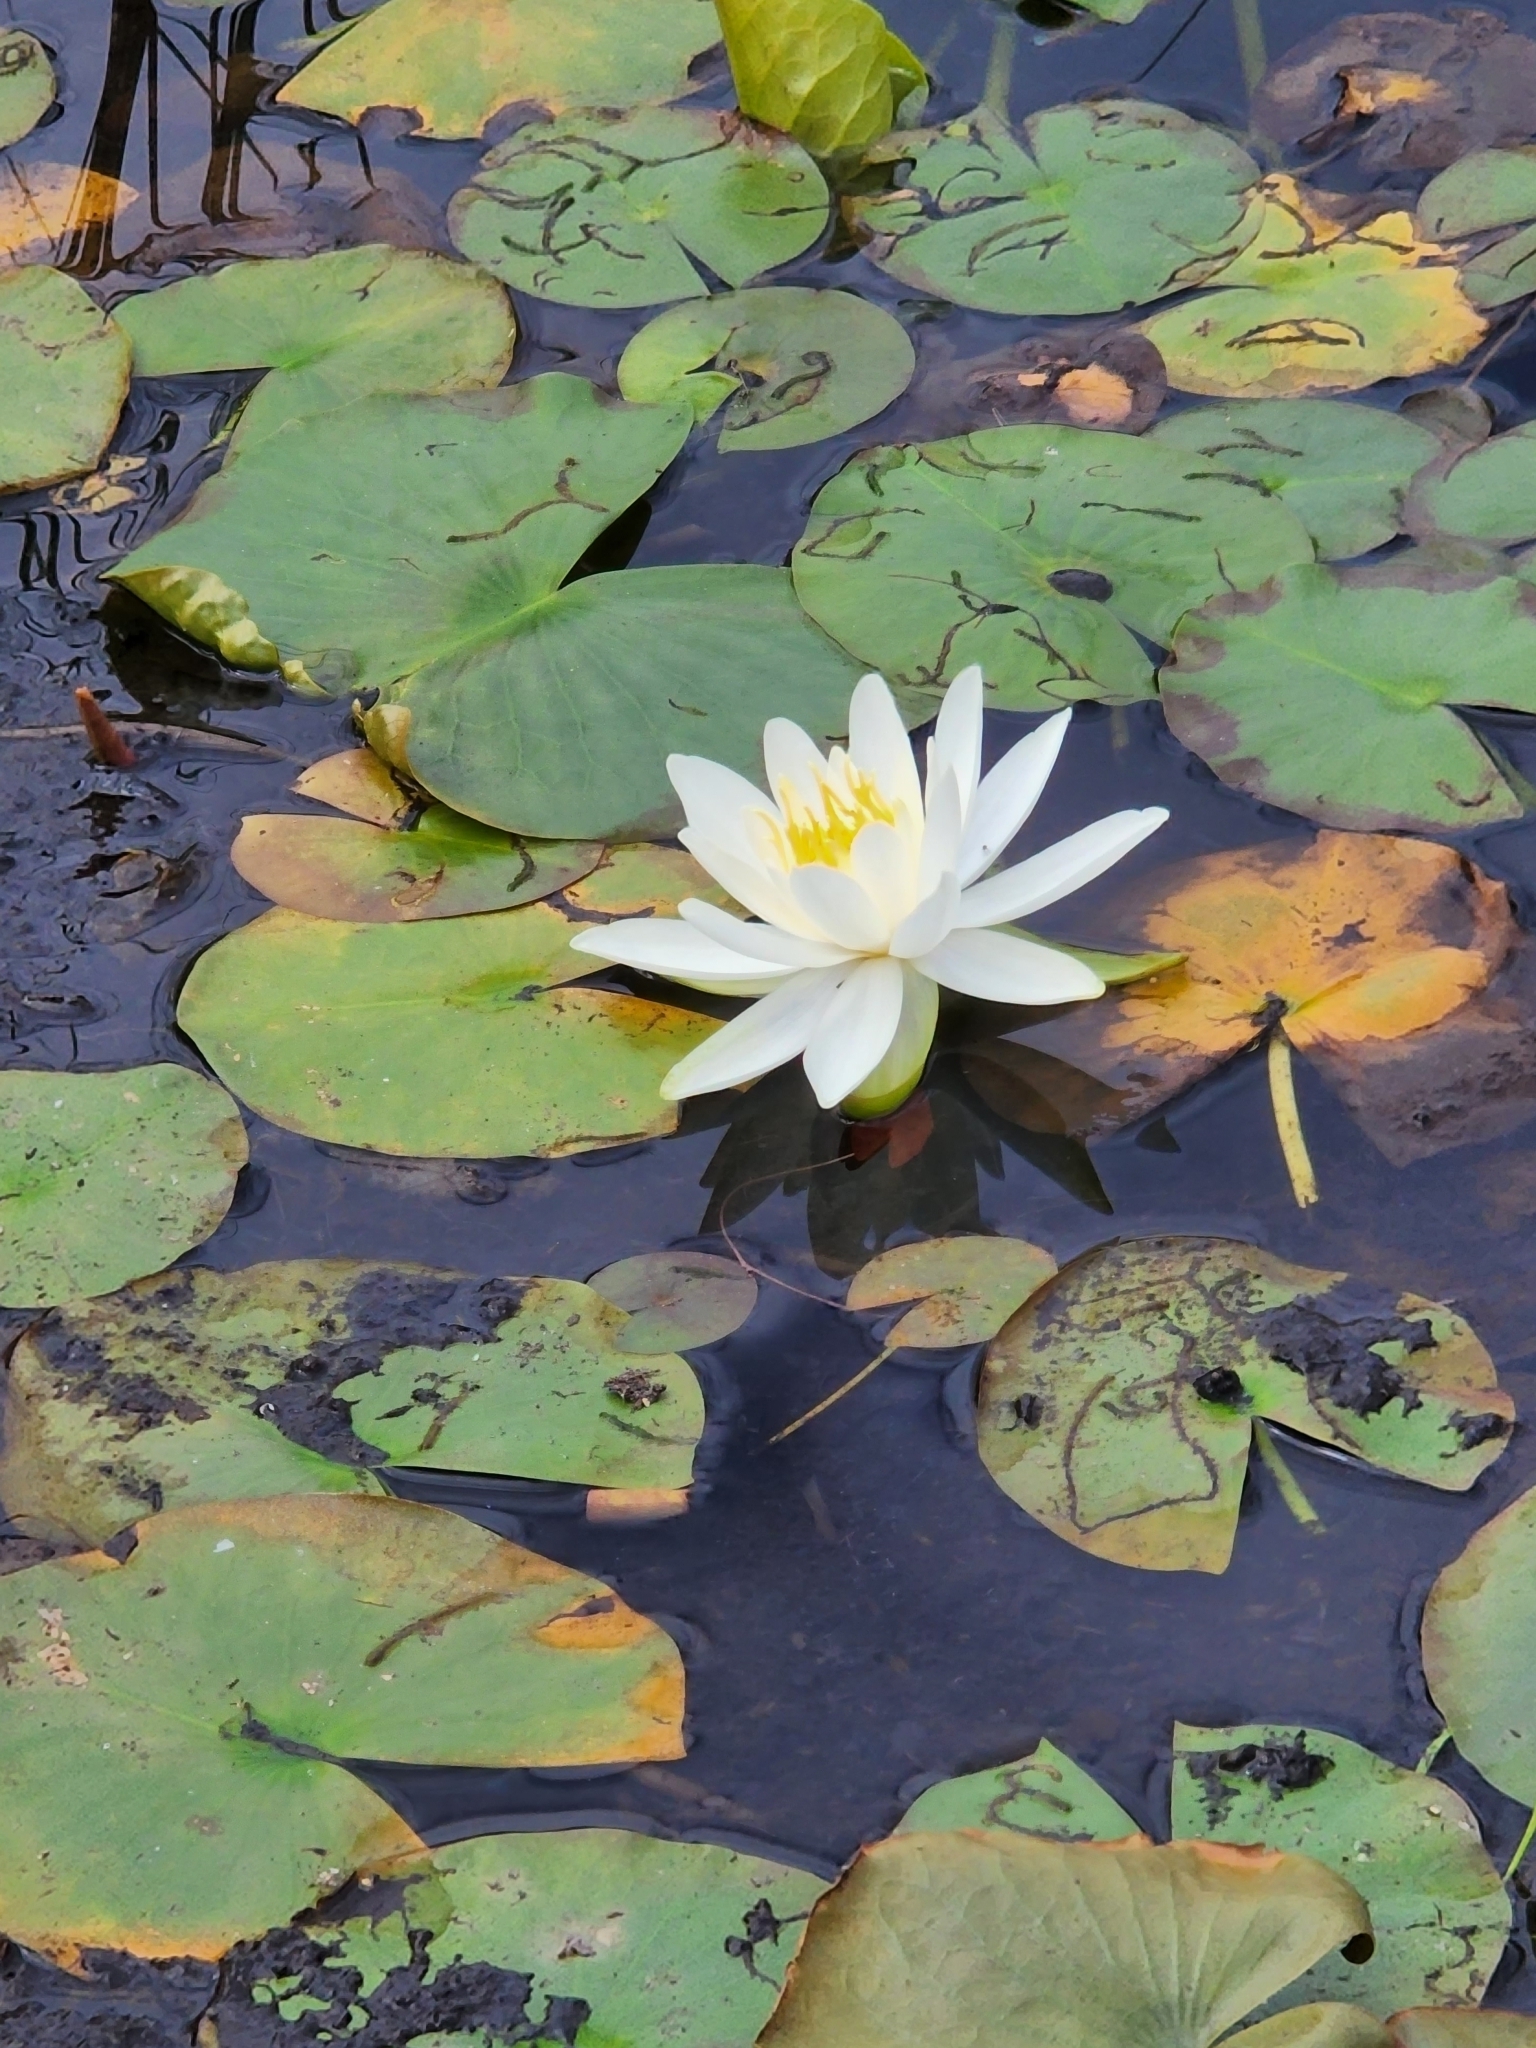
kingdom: Plantae
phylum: Tracheophyta
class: Magnoliopsida
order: Nymphaeales
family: Nymphaeaceae
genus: Nymphaea
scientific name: Nymphaea odorata
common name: Fragrant water-lily
